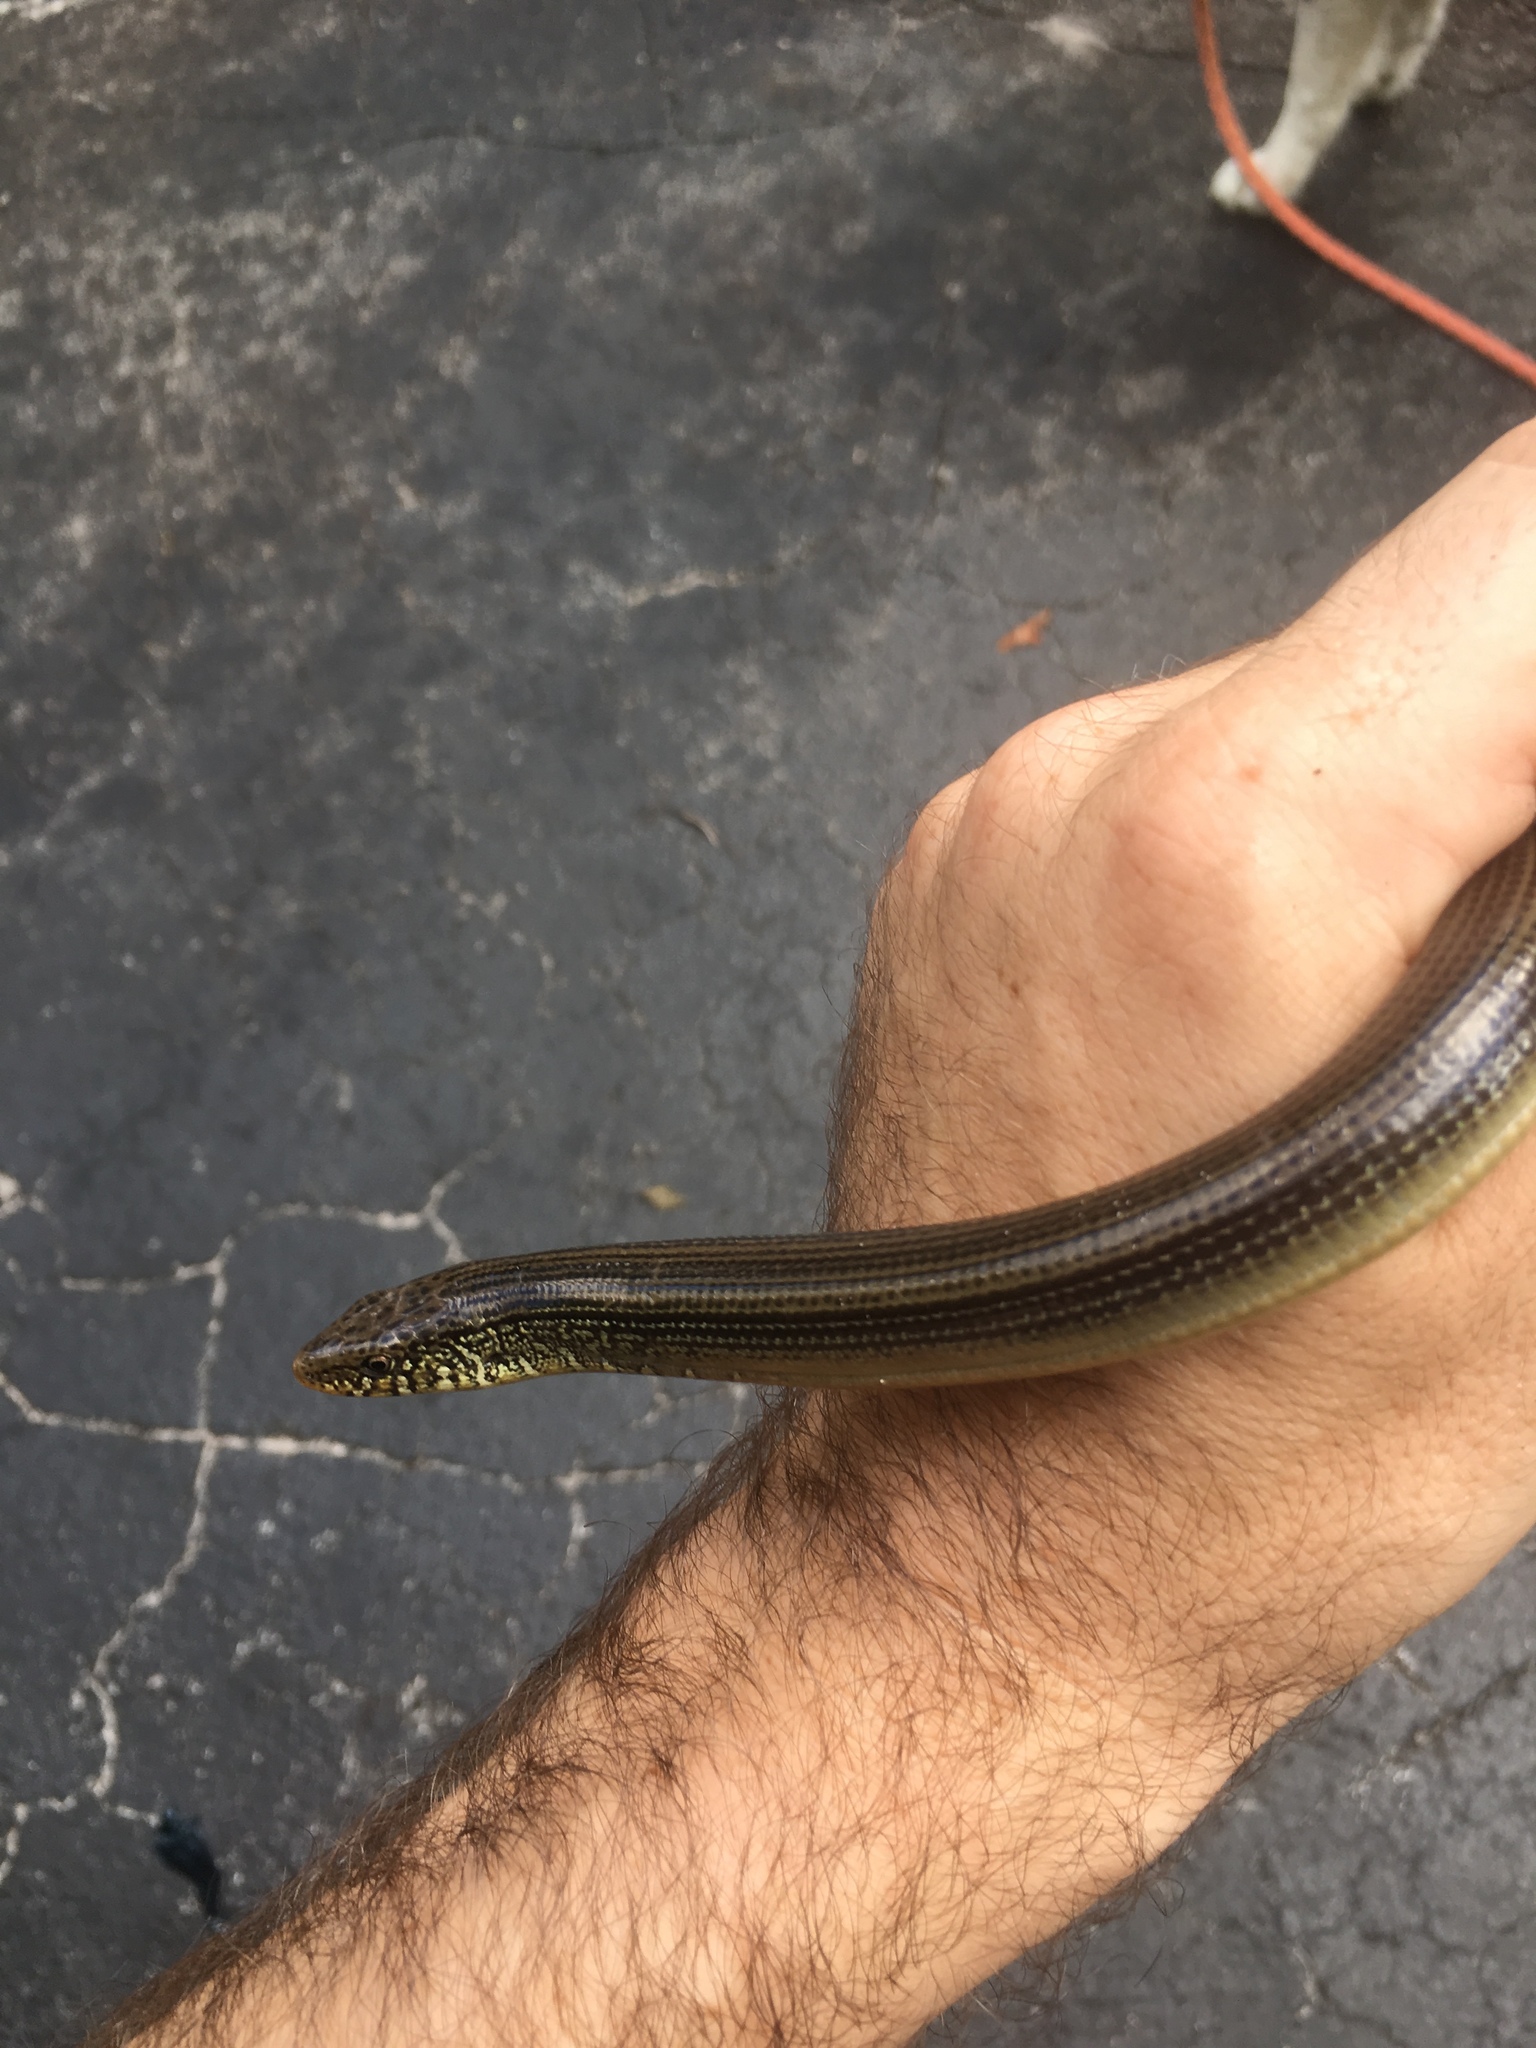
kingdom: Animalia
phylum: Chordata
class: Squamata
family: Anguidae
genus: Ophisaurus
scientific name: Ophisaurus ventralis
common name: Eastern glass lizard
